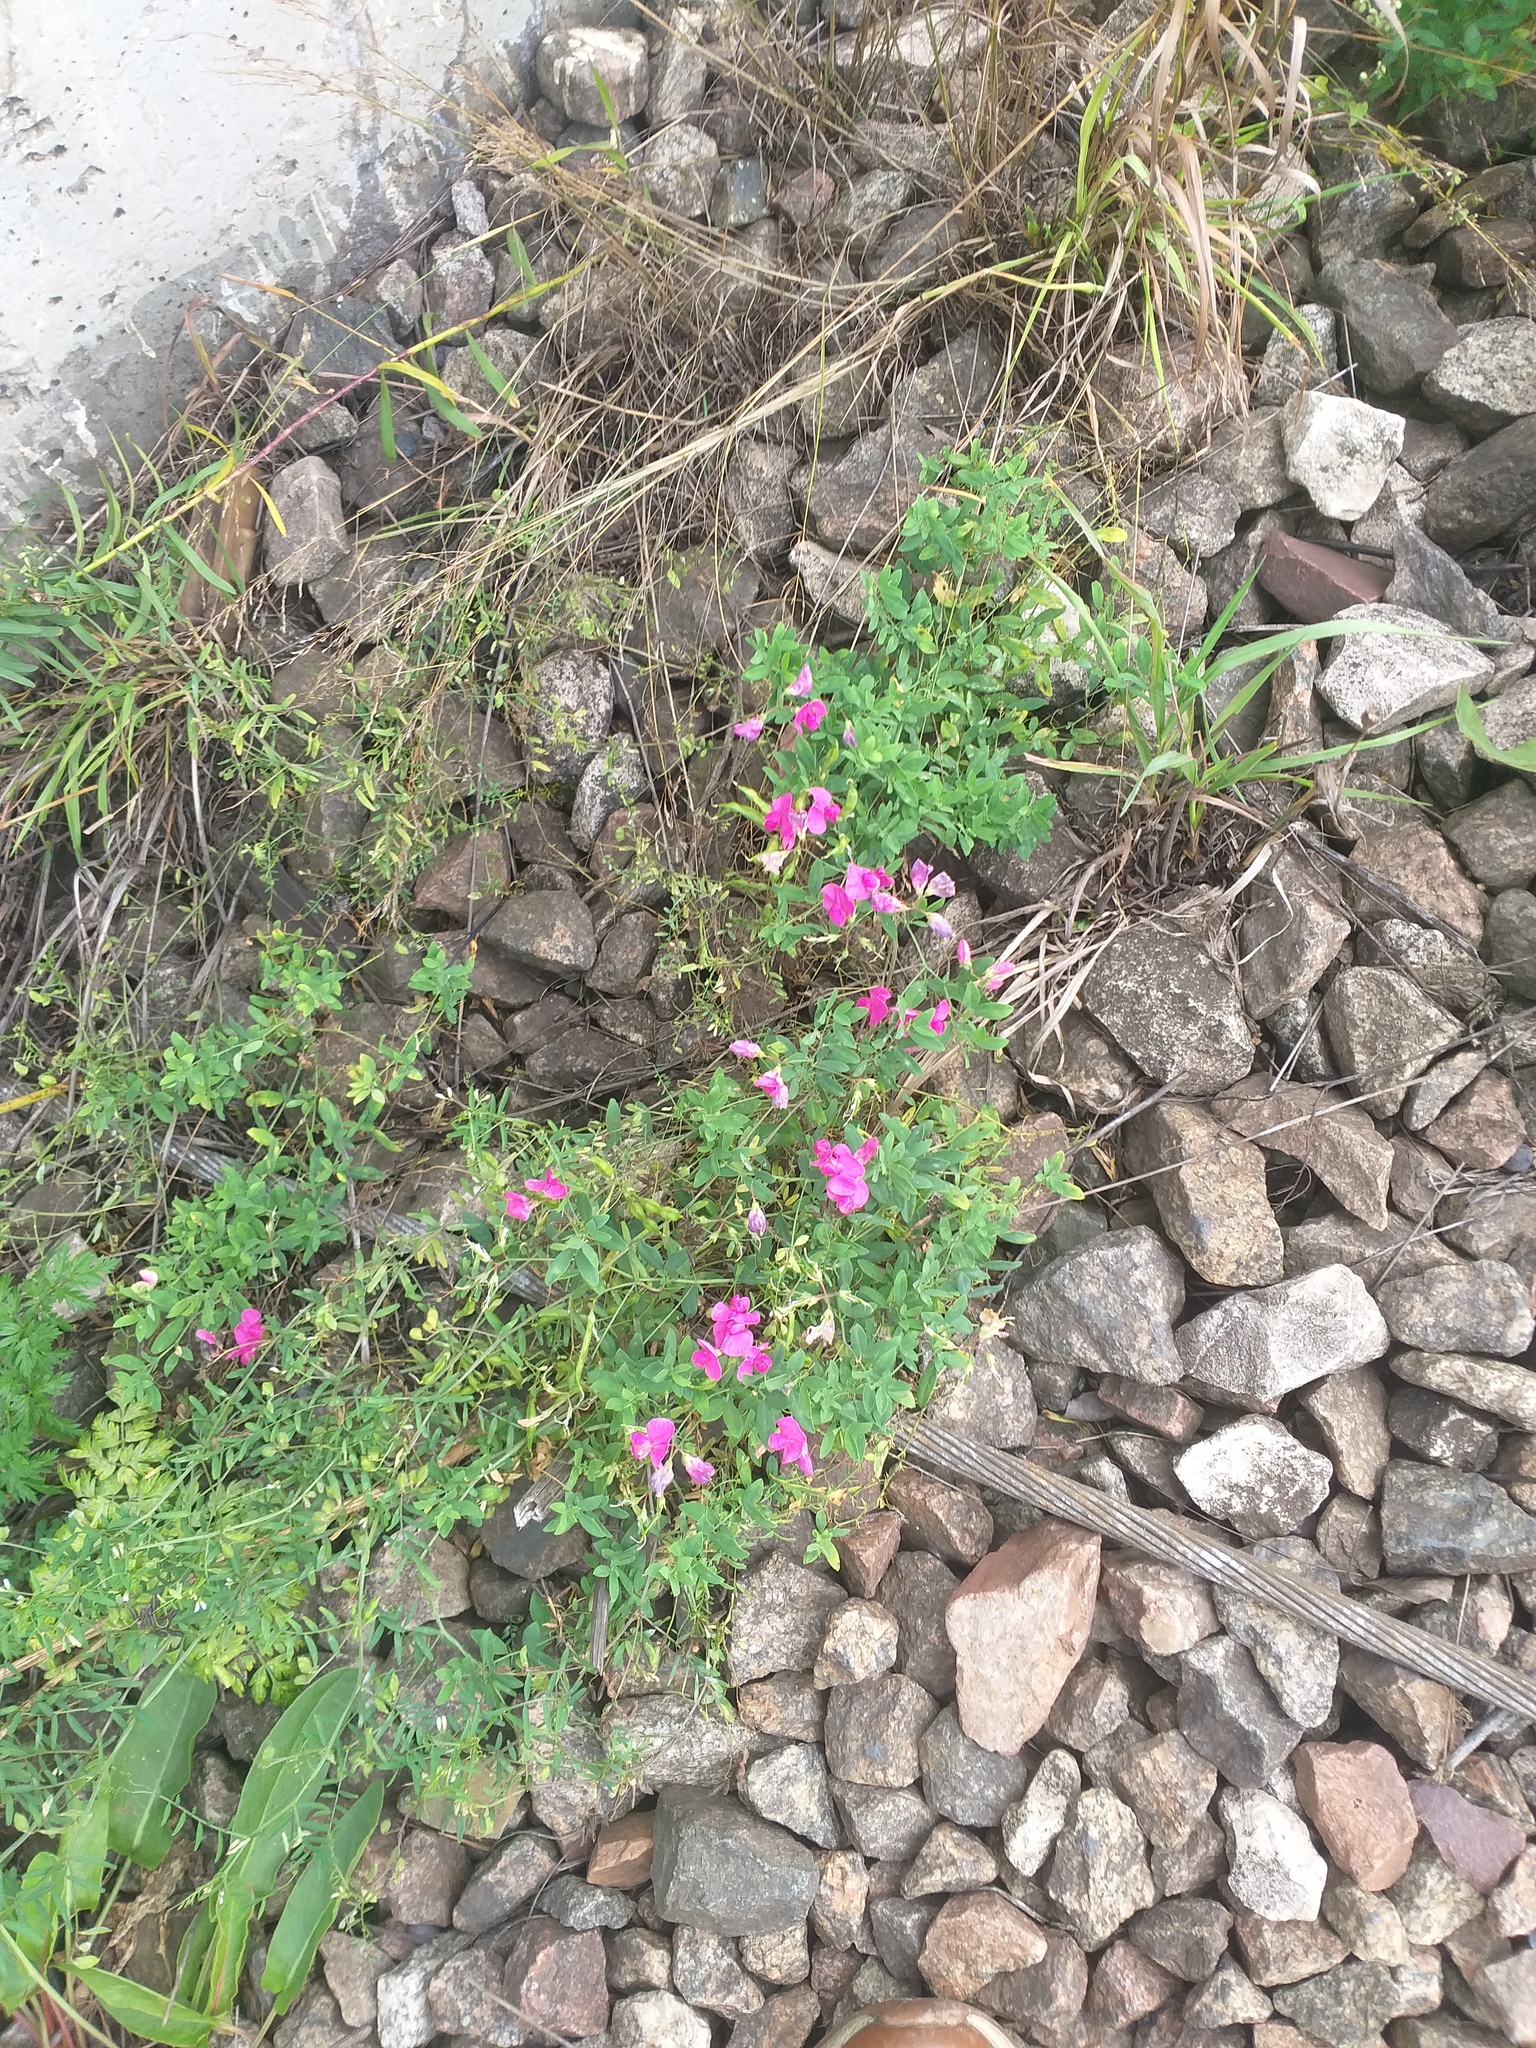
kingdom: Plantae
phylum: Tracheophyta
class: Magnoliopsida
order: Fabales
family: Fabaceae
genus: Lathyrus
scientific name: Lathyrus tuberosus
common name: Tuberous pea
